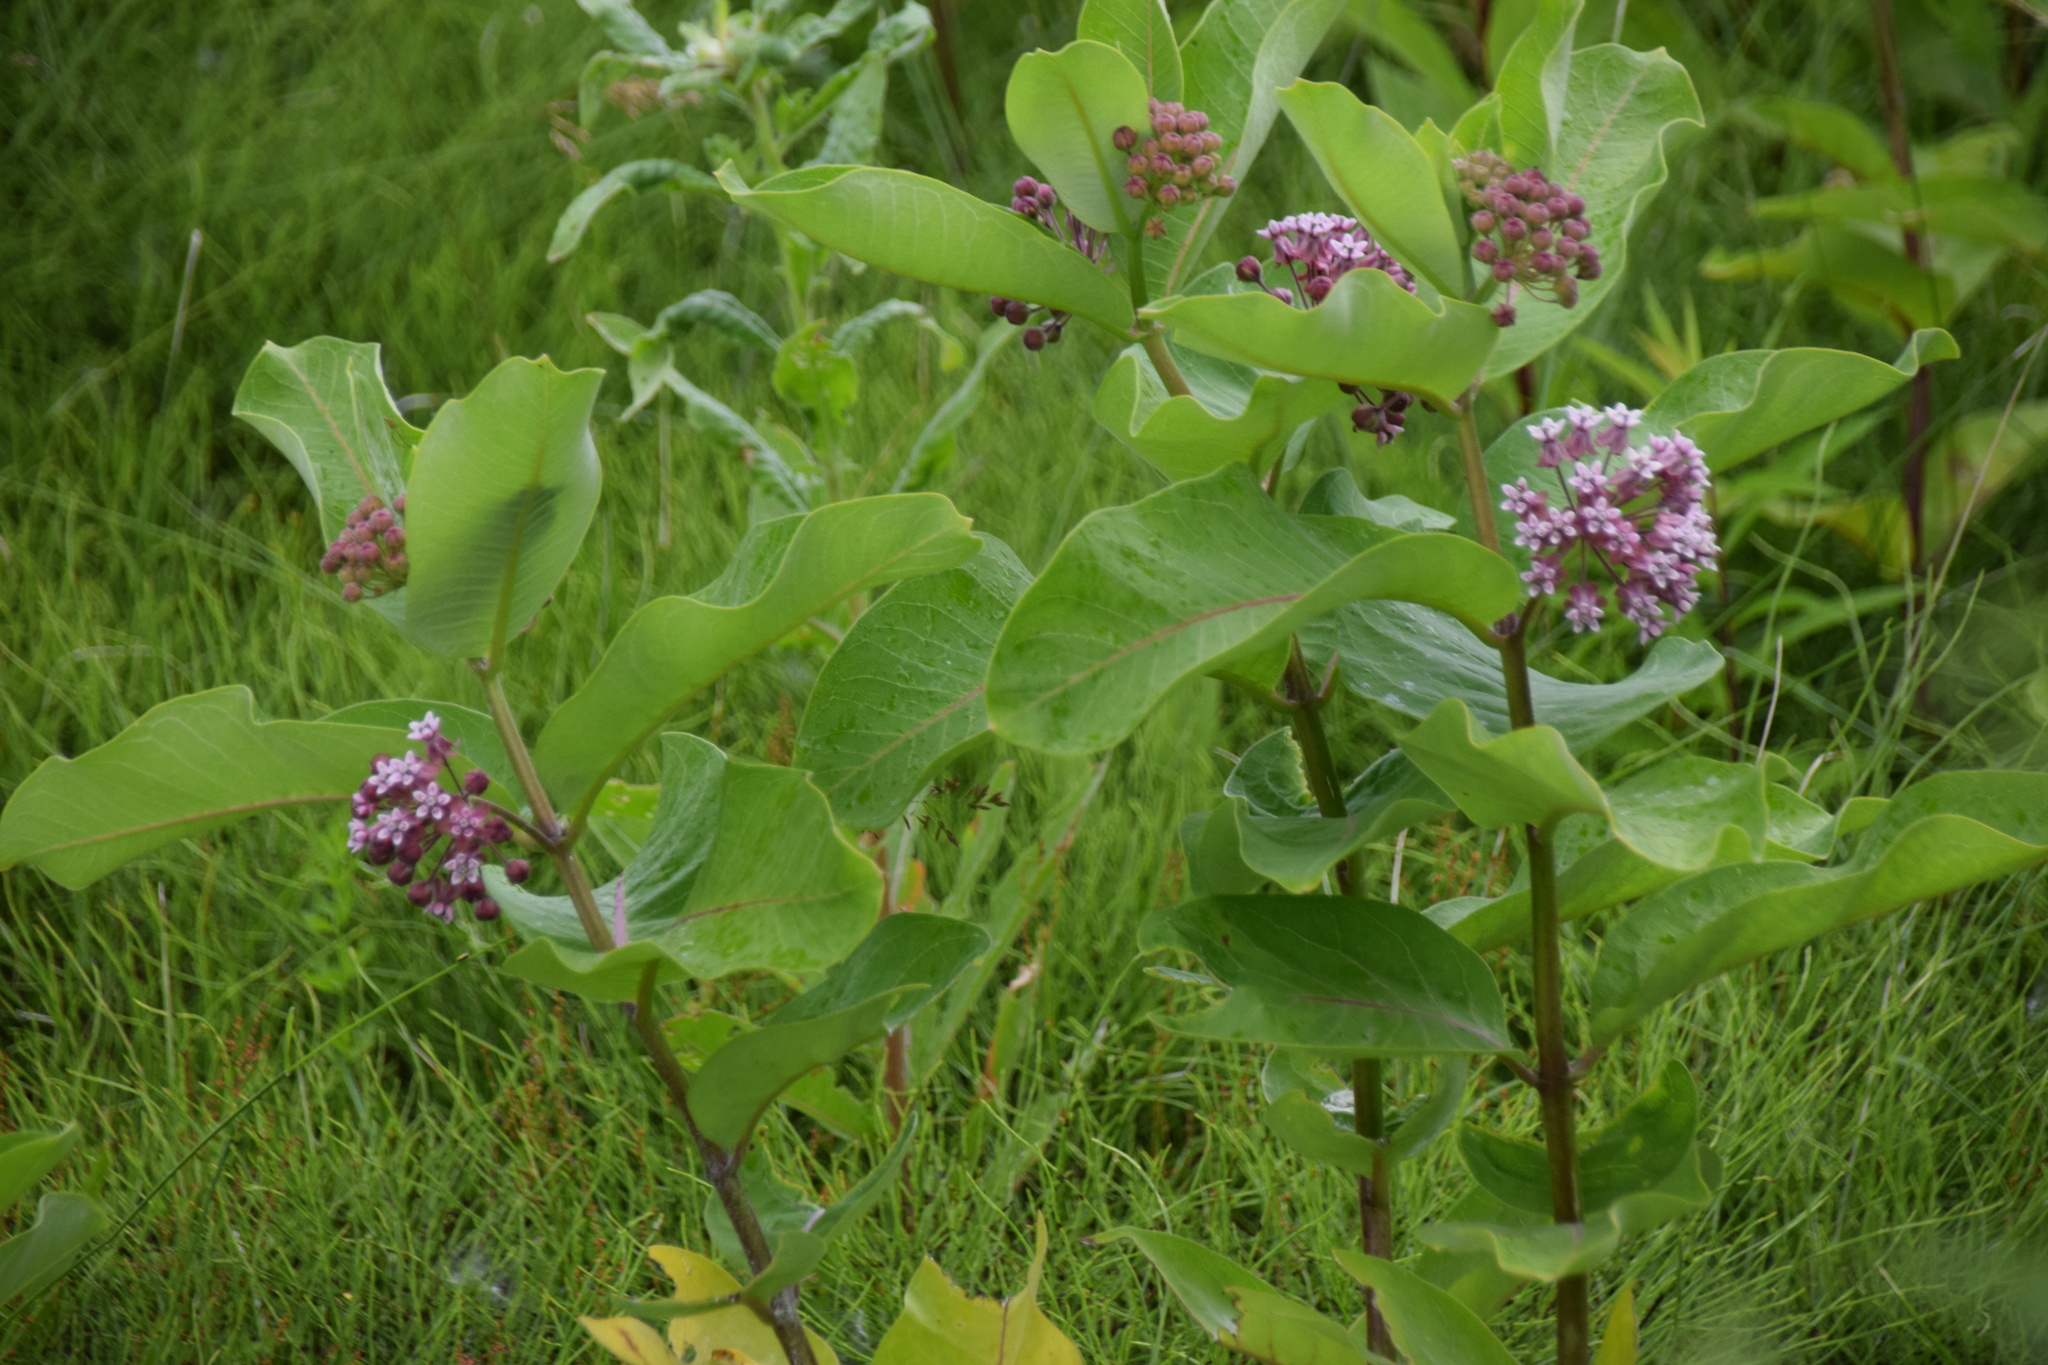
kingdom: Plantae
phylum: Tracheophyta
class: Magnoliopsida
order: Gentianales
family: Apocynaceae
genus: Asclepias
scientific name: Asclepias syriaca
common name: Common milkweed
